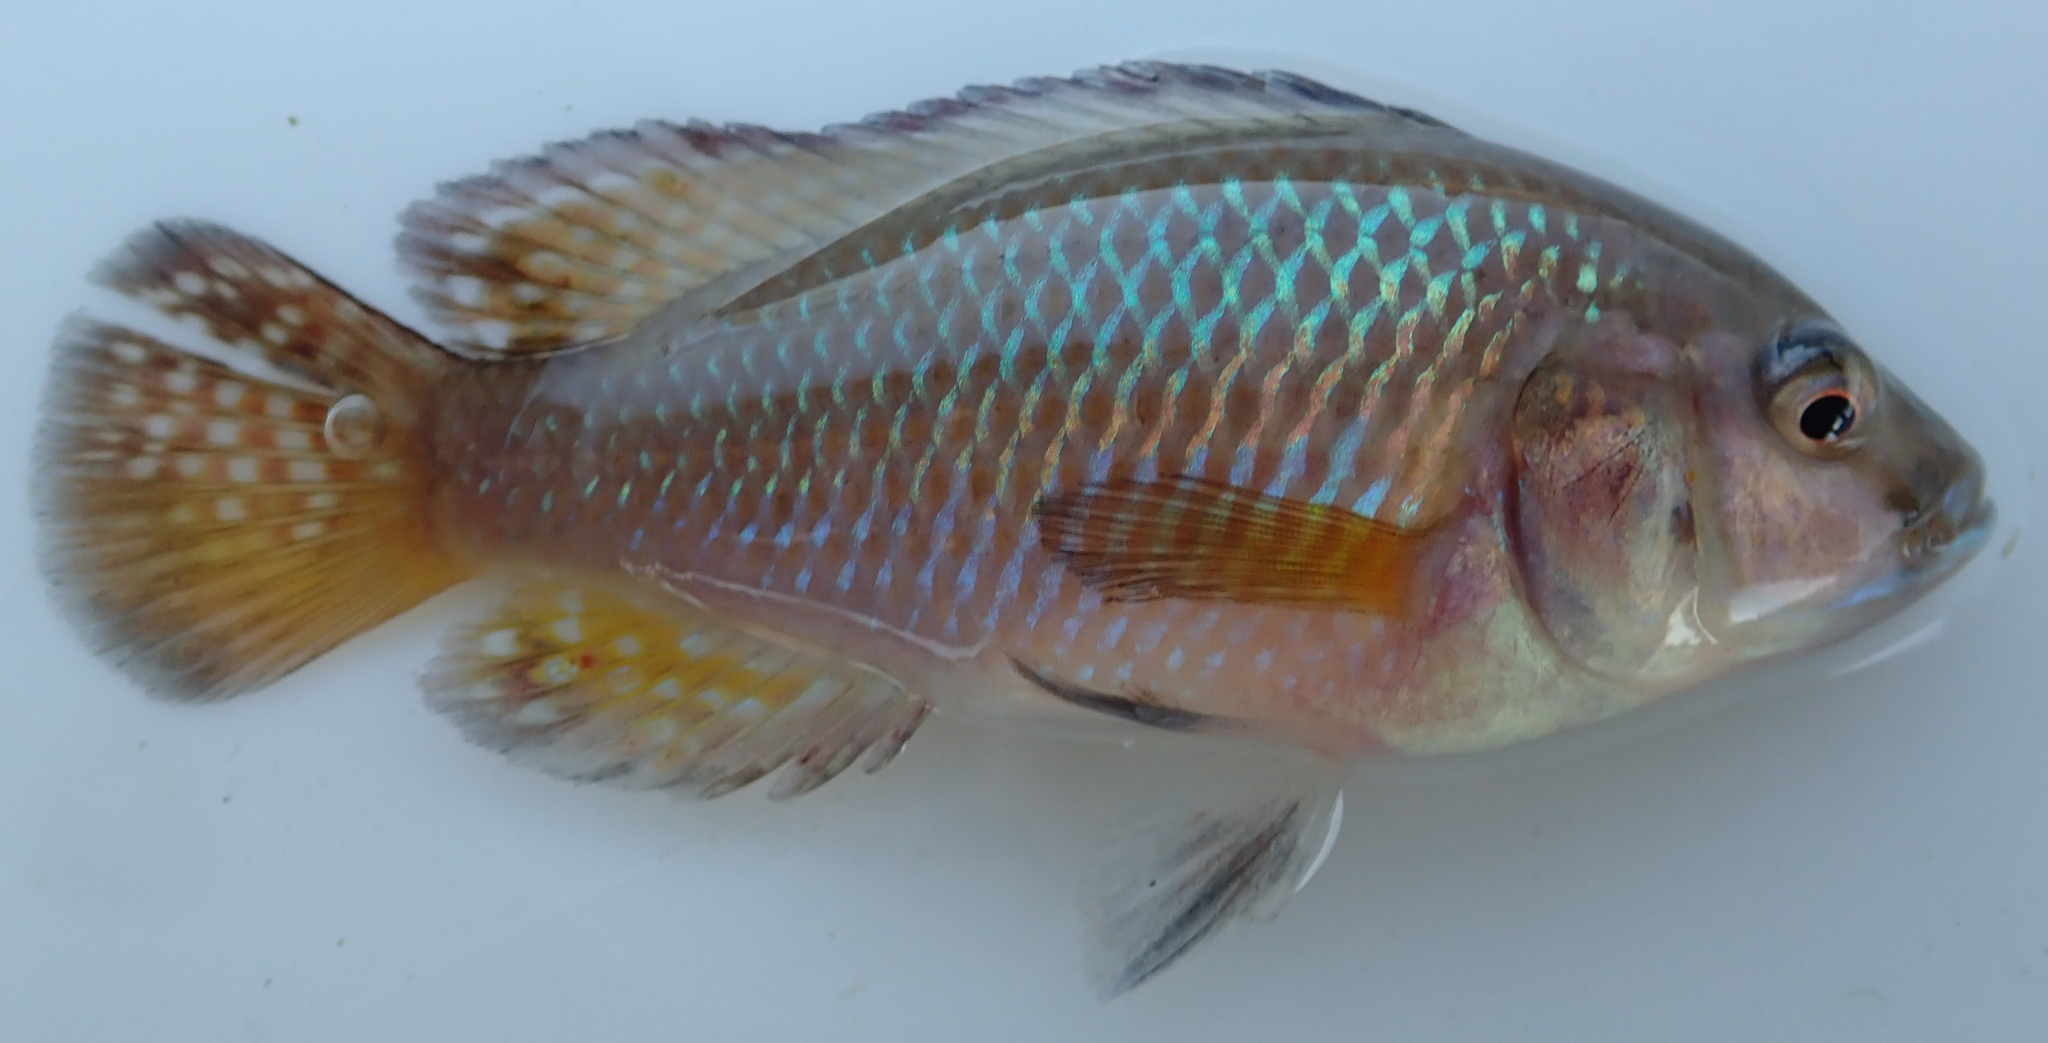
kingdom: Animalia
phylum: Chordata
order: Perciformes
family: Cichlidae
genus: Pseudocrenilabrus
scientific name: Pseudocrenilabrus philander
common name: Southern mouthbrooder
